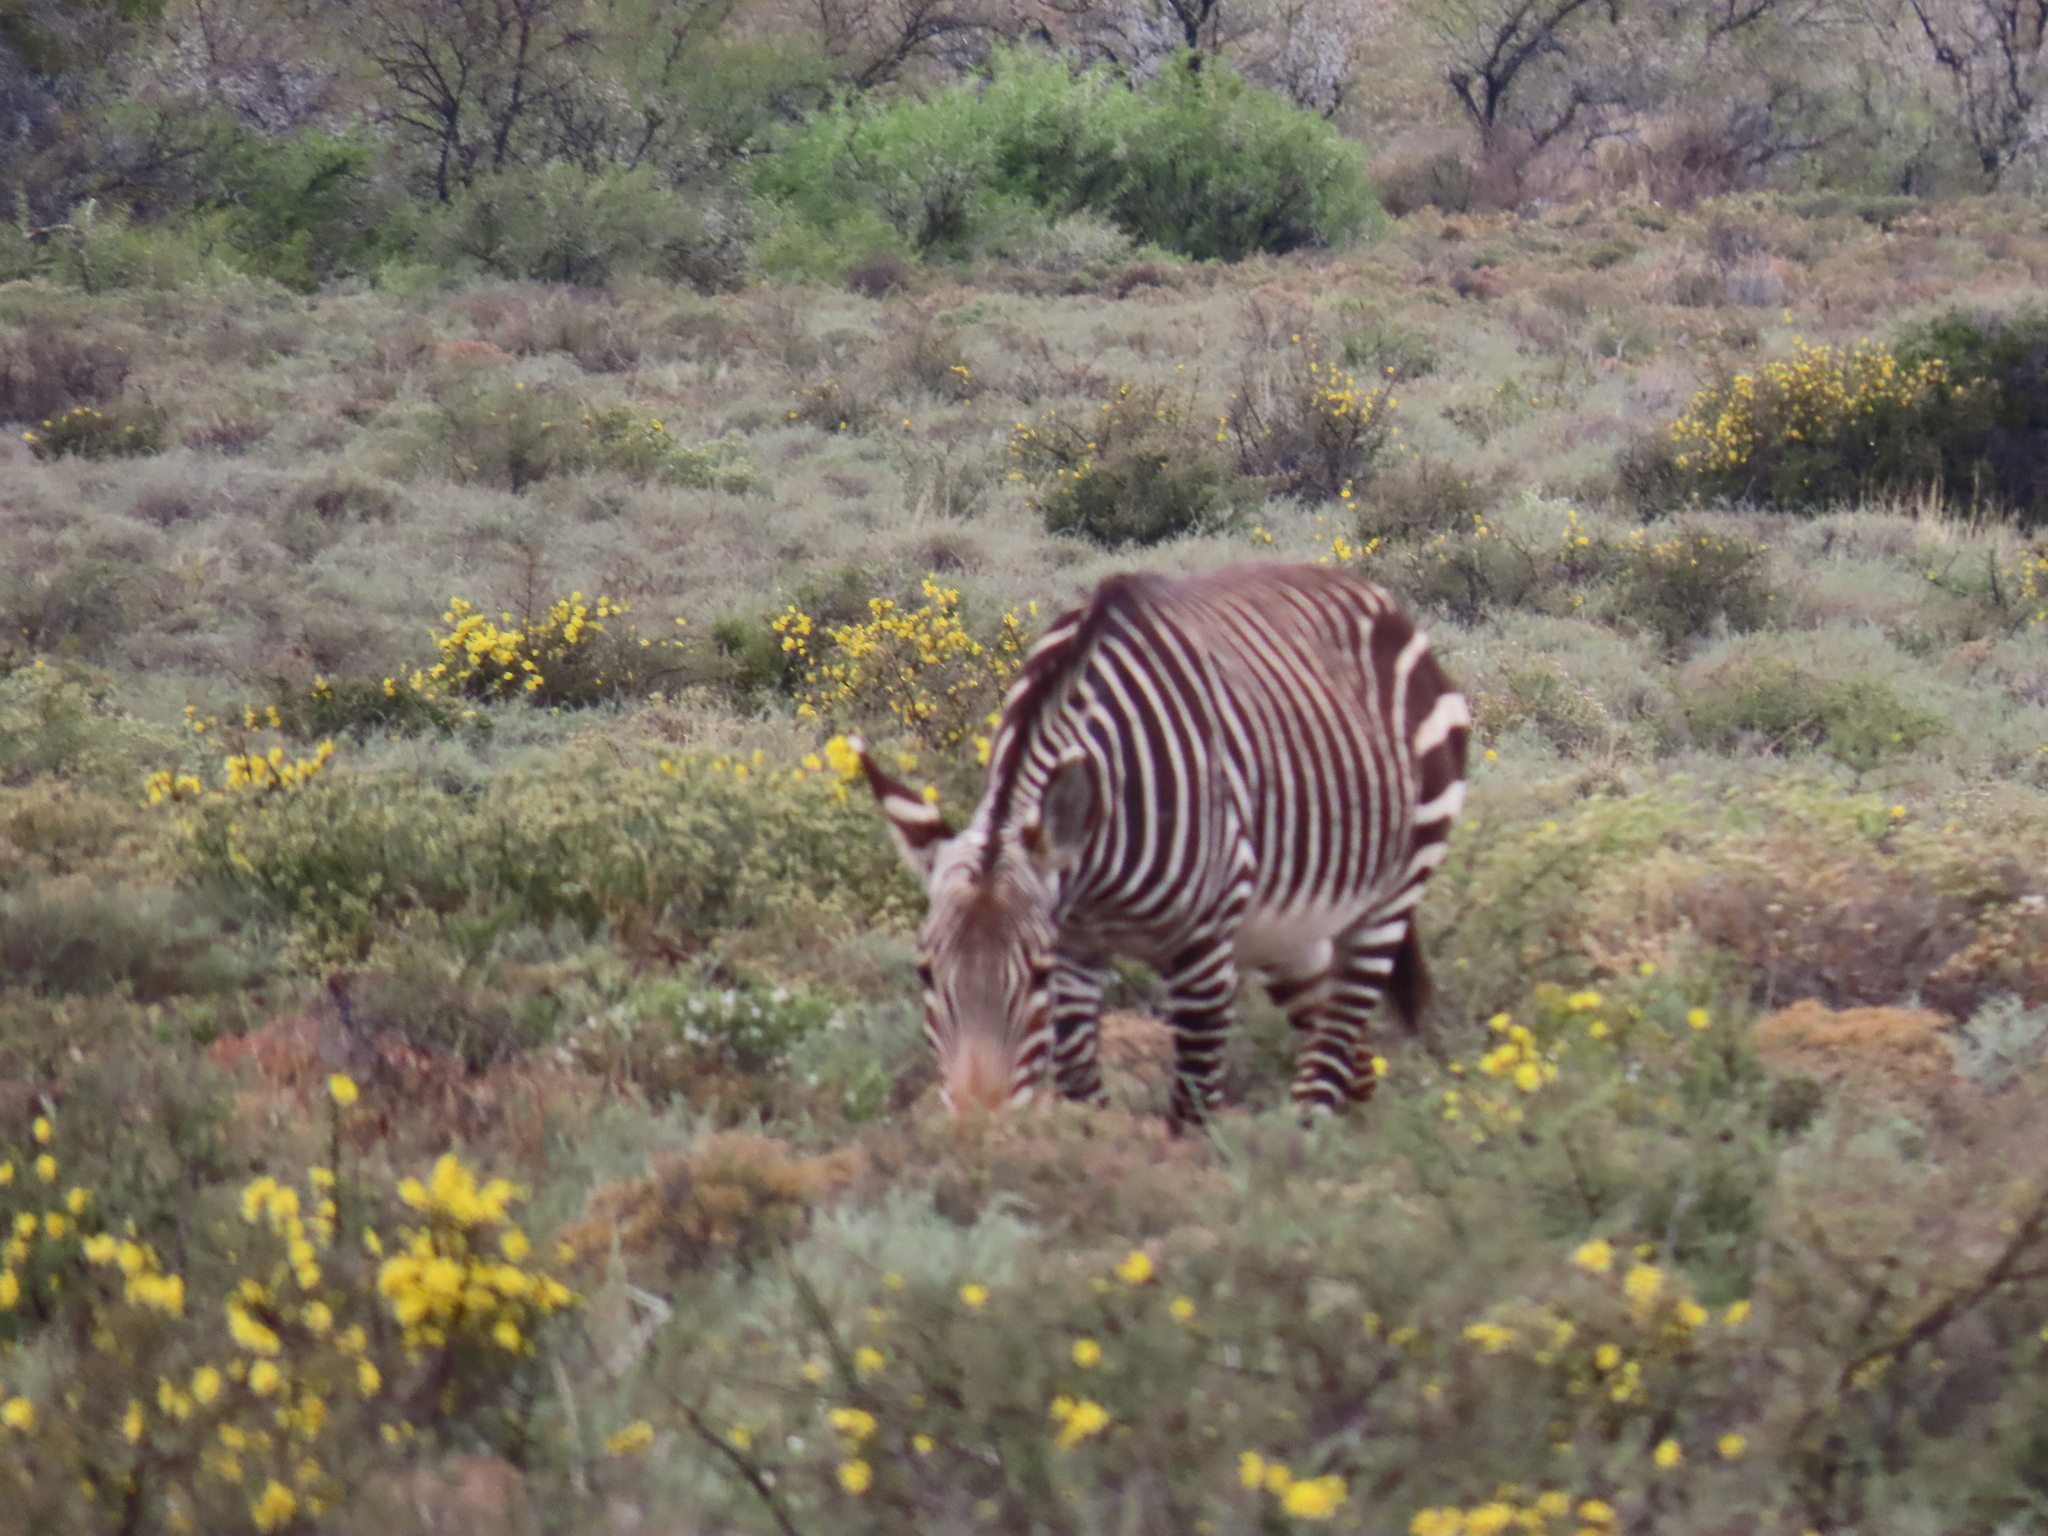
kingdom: Animalia
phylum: Chordata
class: Mammalia
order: Perissodactyla
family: Equidae
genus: Equus
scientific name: Equus zebra
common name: Mountain zebra
